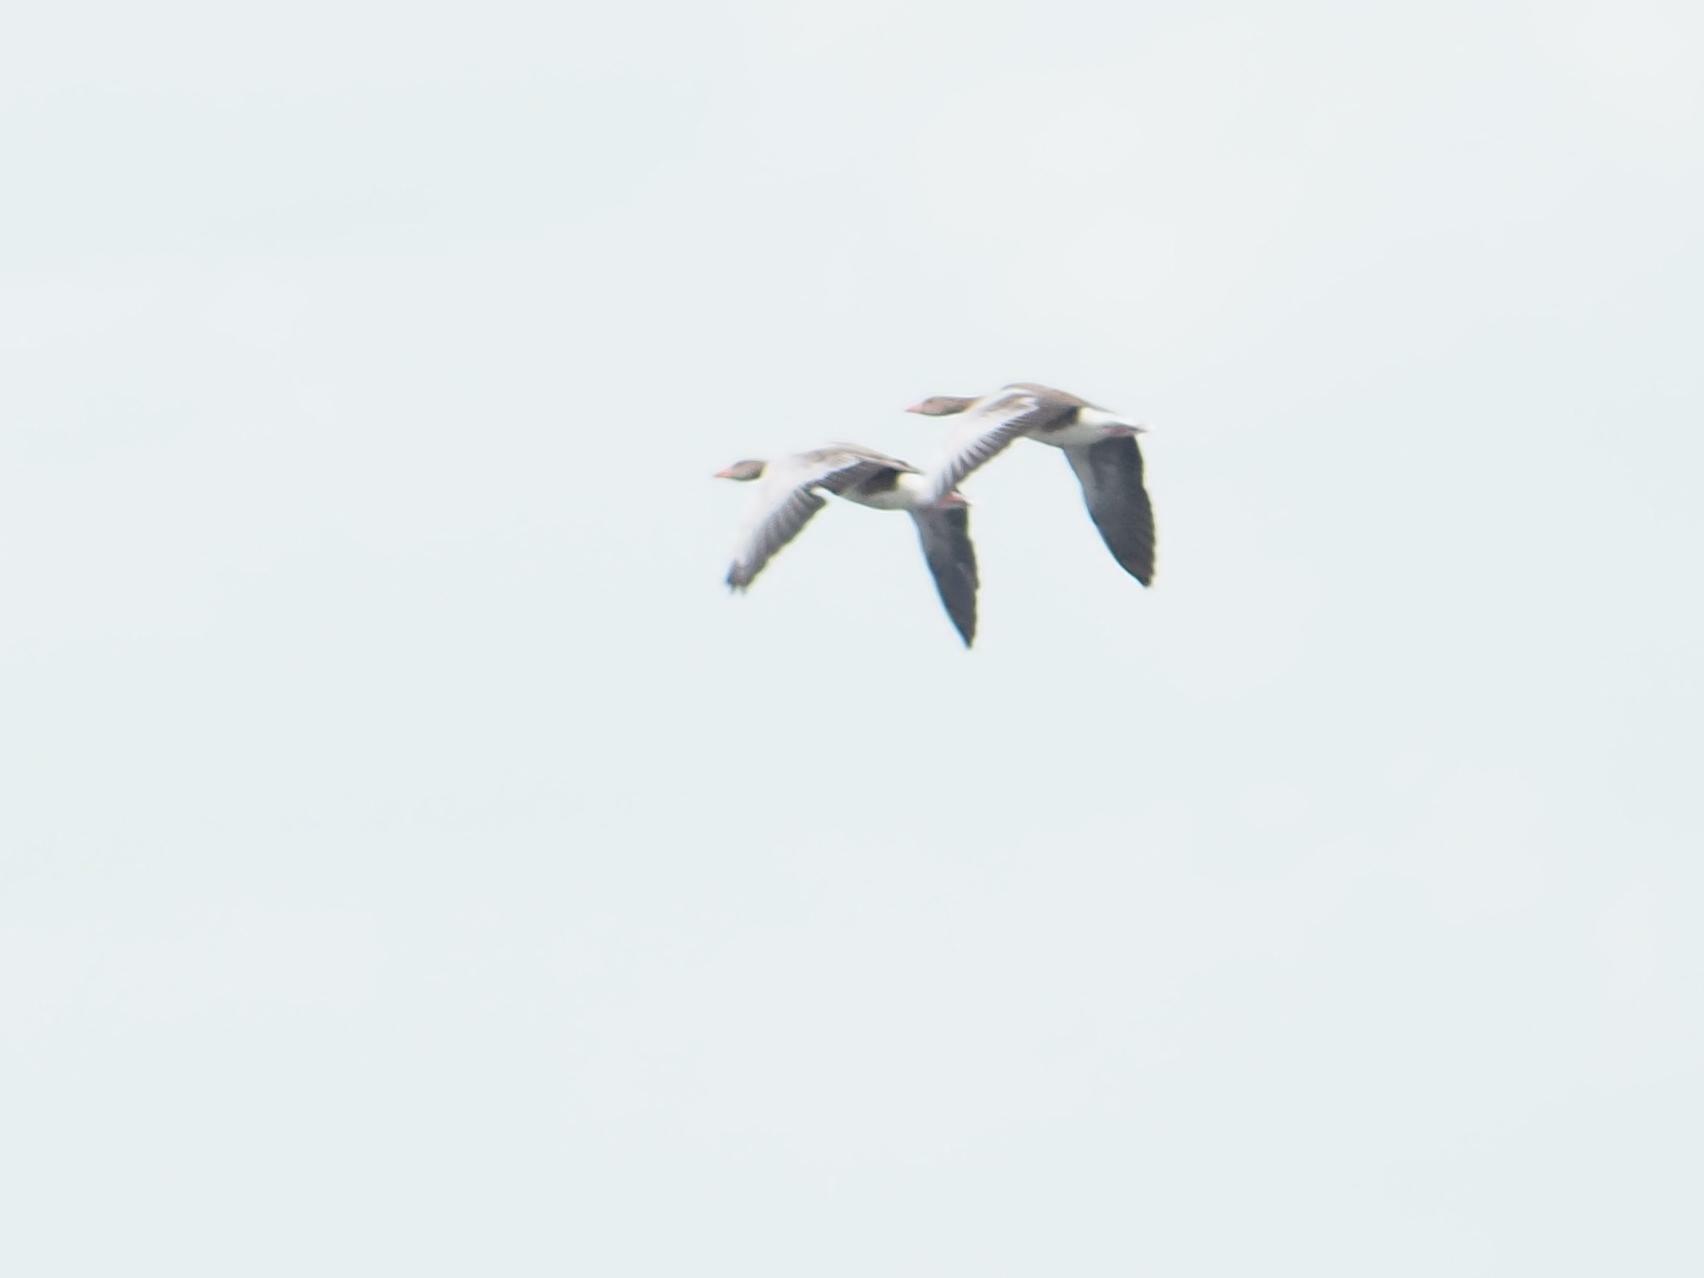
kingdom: Animalia
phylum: Chordata
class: Aves
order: Anseriformes
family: Anatidae
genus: Anser
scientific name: Anser anser
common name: Greylag goose
